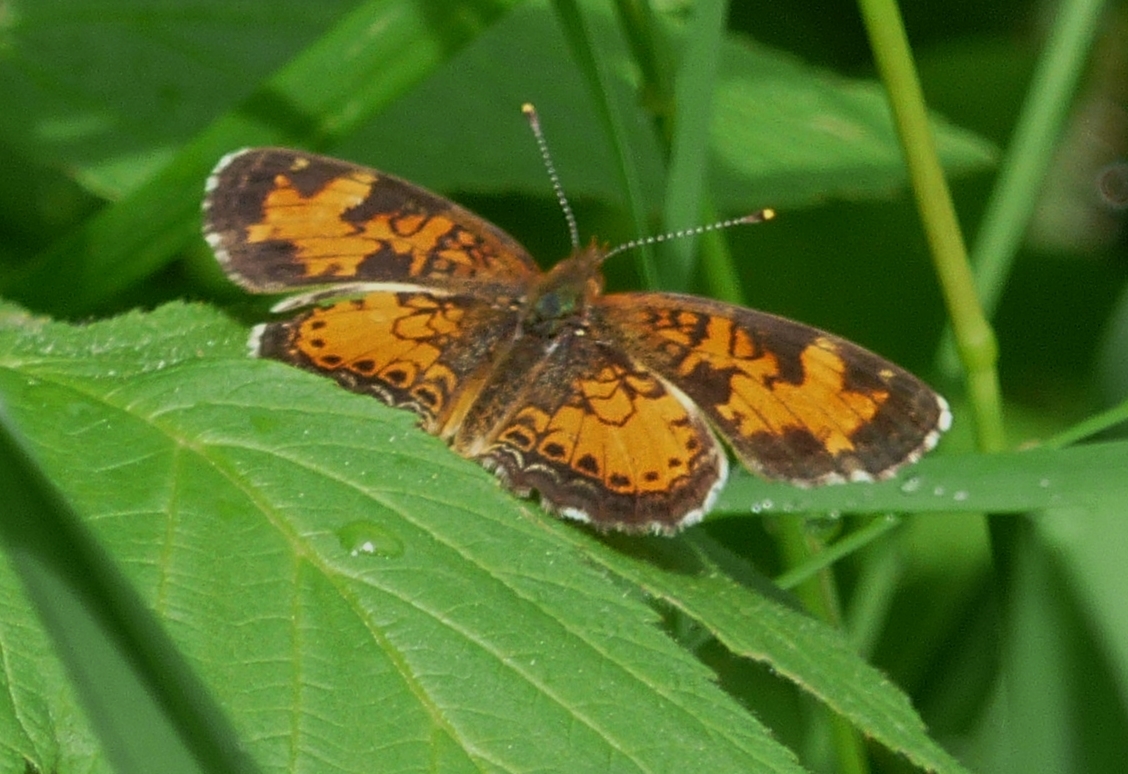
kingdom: Animalia
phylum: Arthropoda
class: Insecta
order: Lepidoptera
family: Nymphalidae
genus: Phyciodes
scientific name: Phyciodes tharos
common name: Pearl crescent
